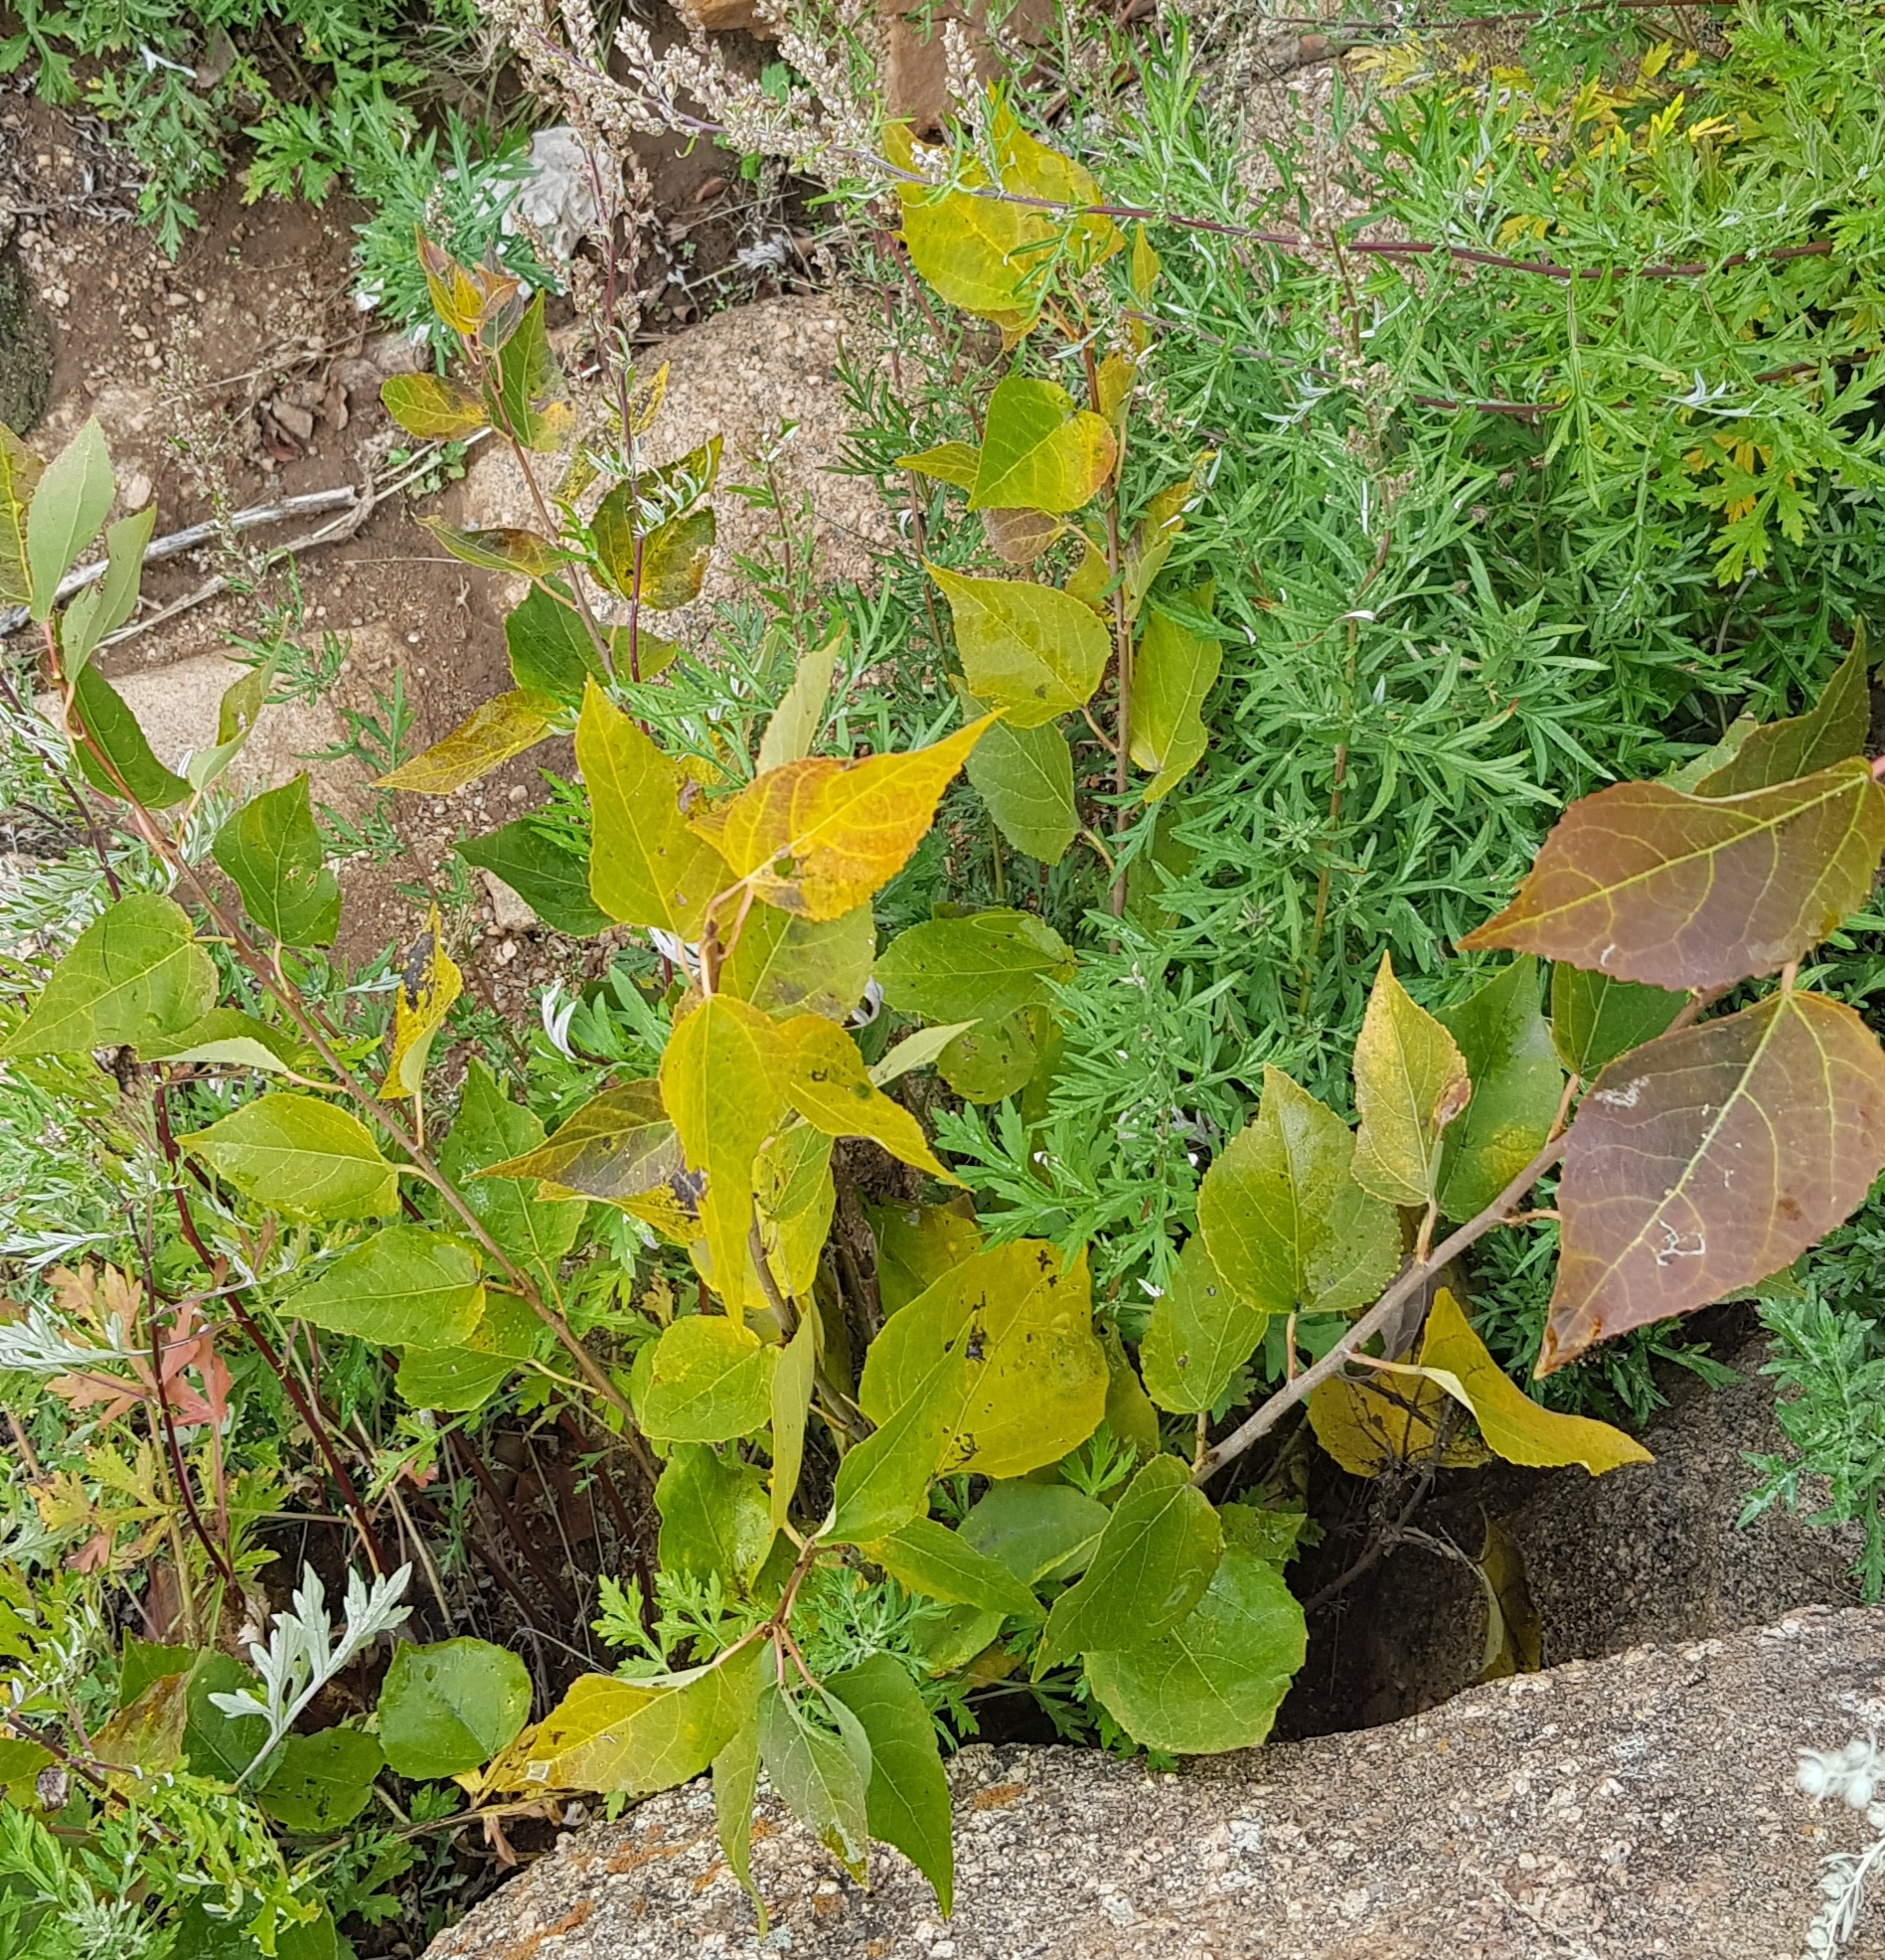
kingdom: Plantae
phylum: Tracheophyta
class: Magnoliopsida
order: Malpighiales
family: Salicaceae
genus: Populus
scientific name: Populus laurifolia
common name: Laurel-leaf poplar
